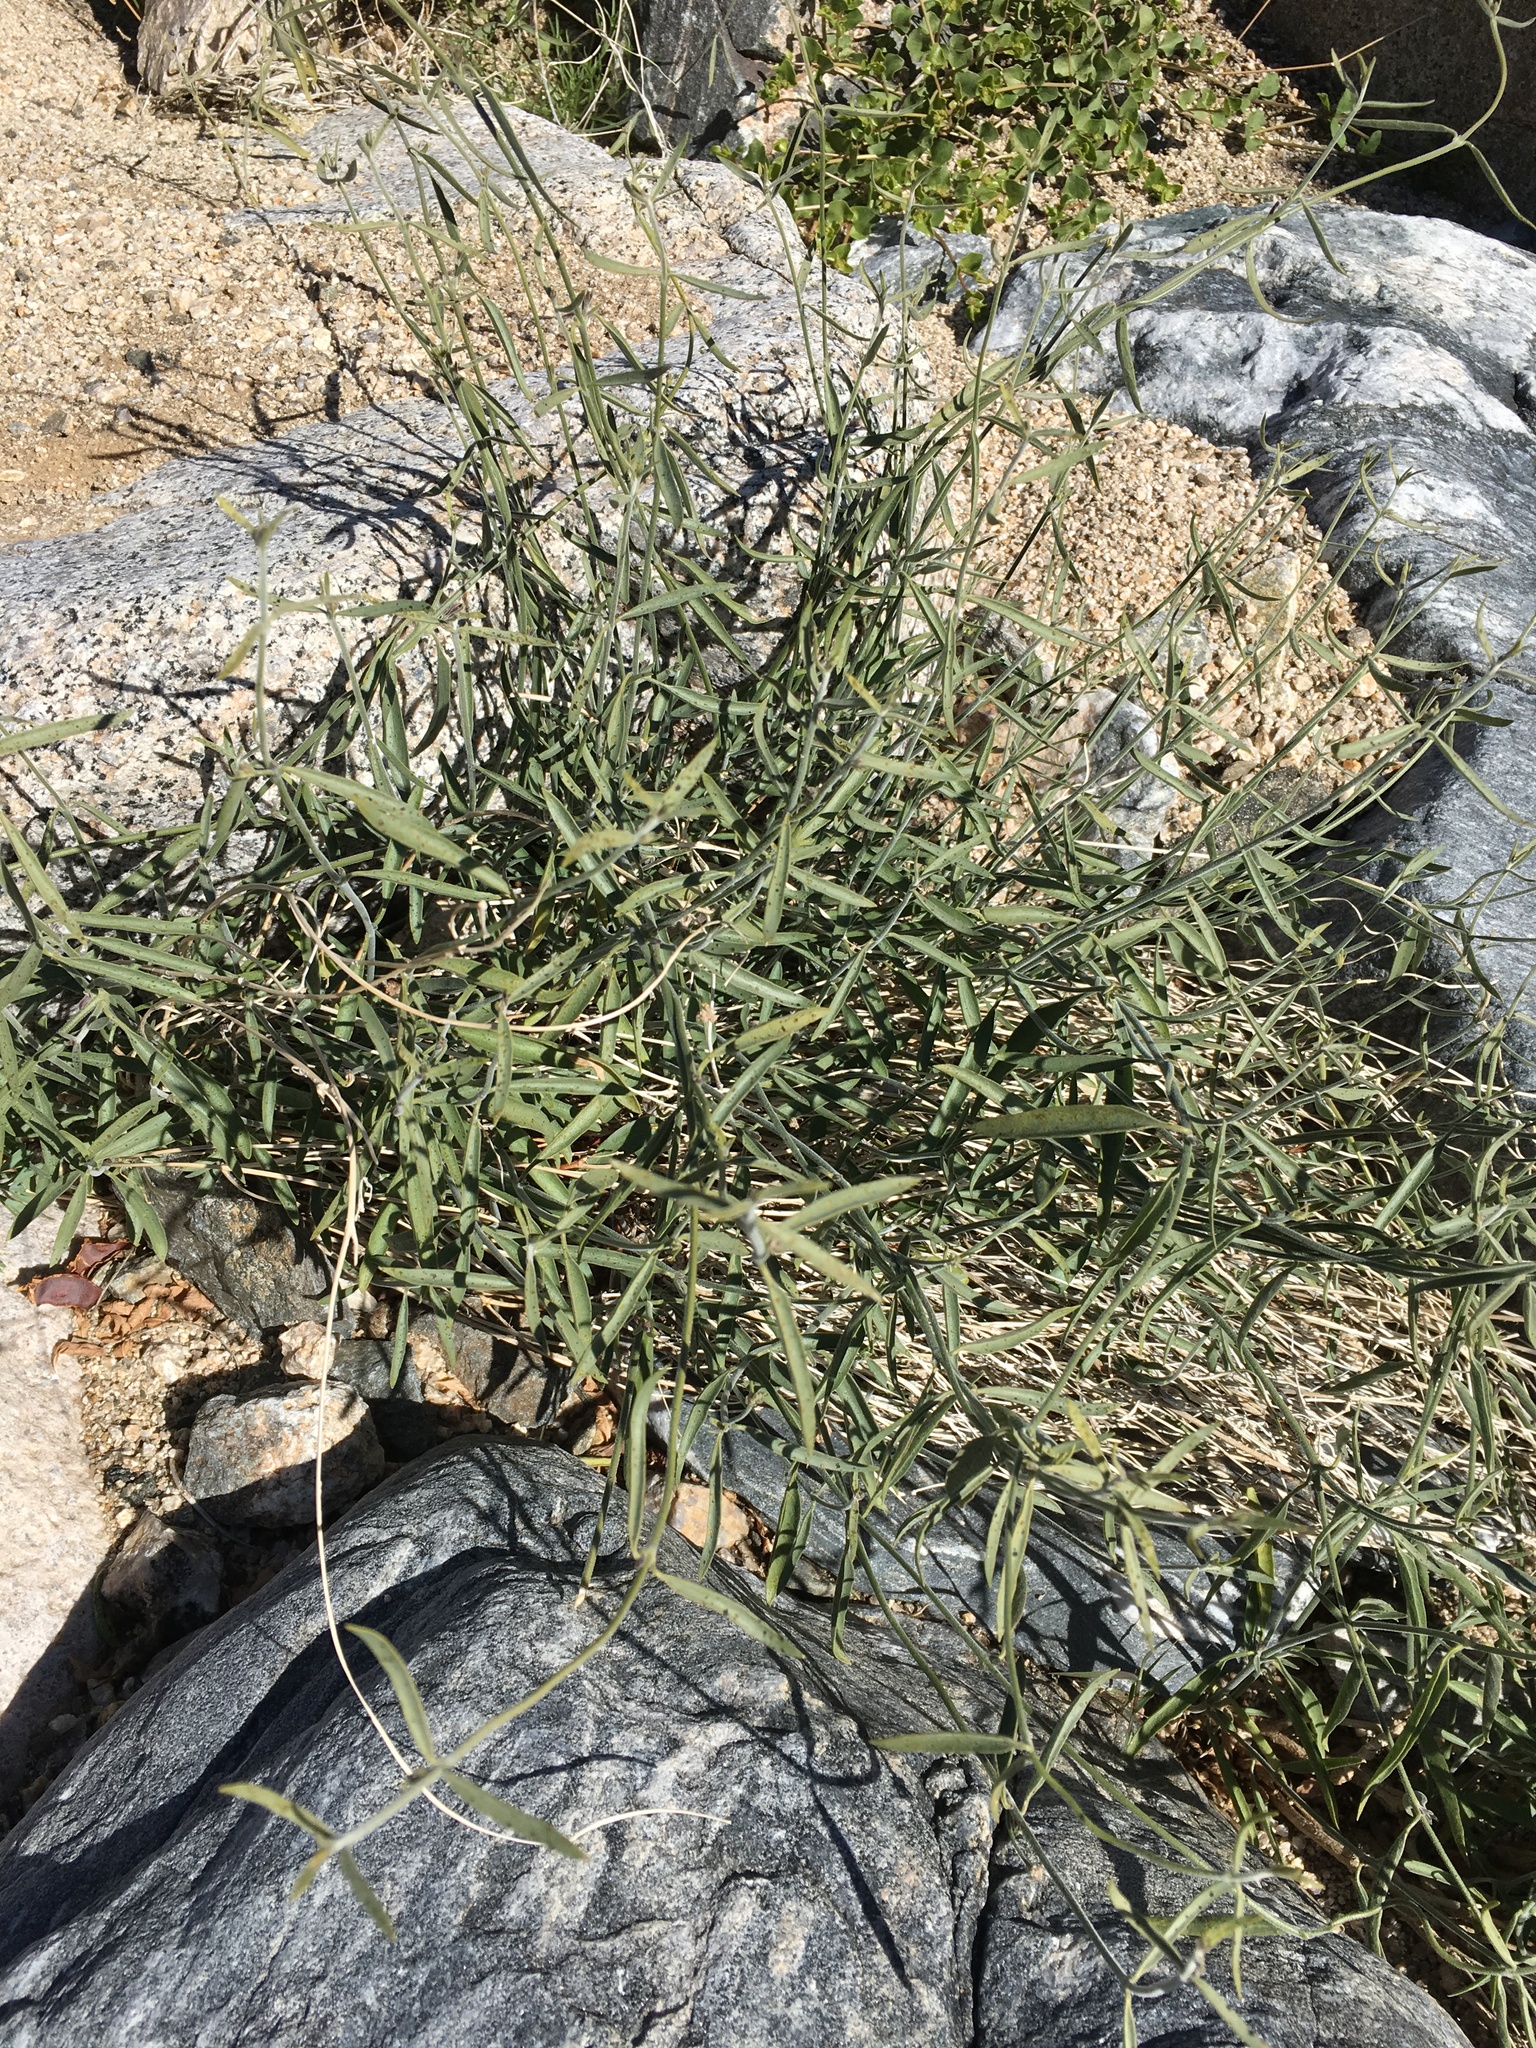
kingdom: Plantae
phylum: Tracheophyta
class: Magnoliopsida
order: Gentianales
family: Apocynaceae
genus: Funastrum
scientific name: Funastrum heterophyllum
